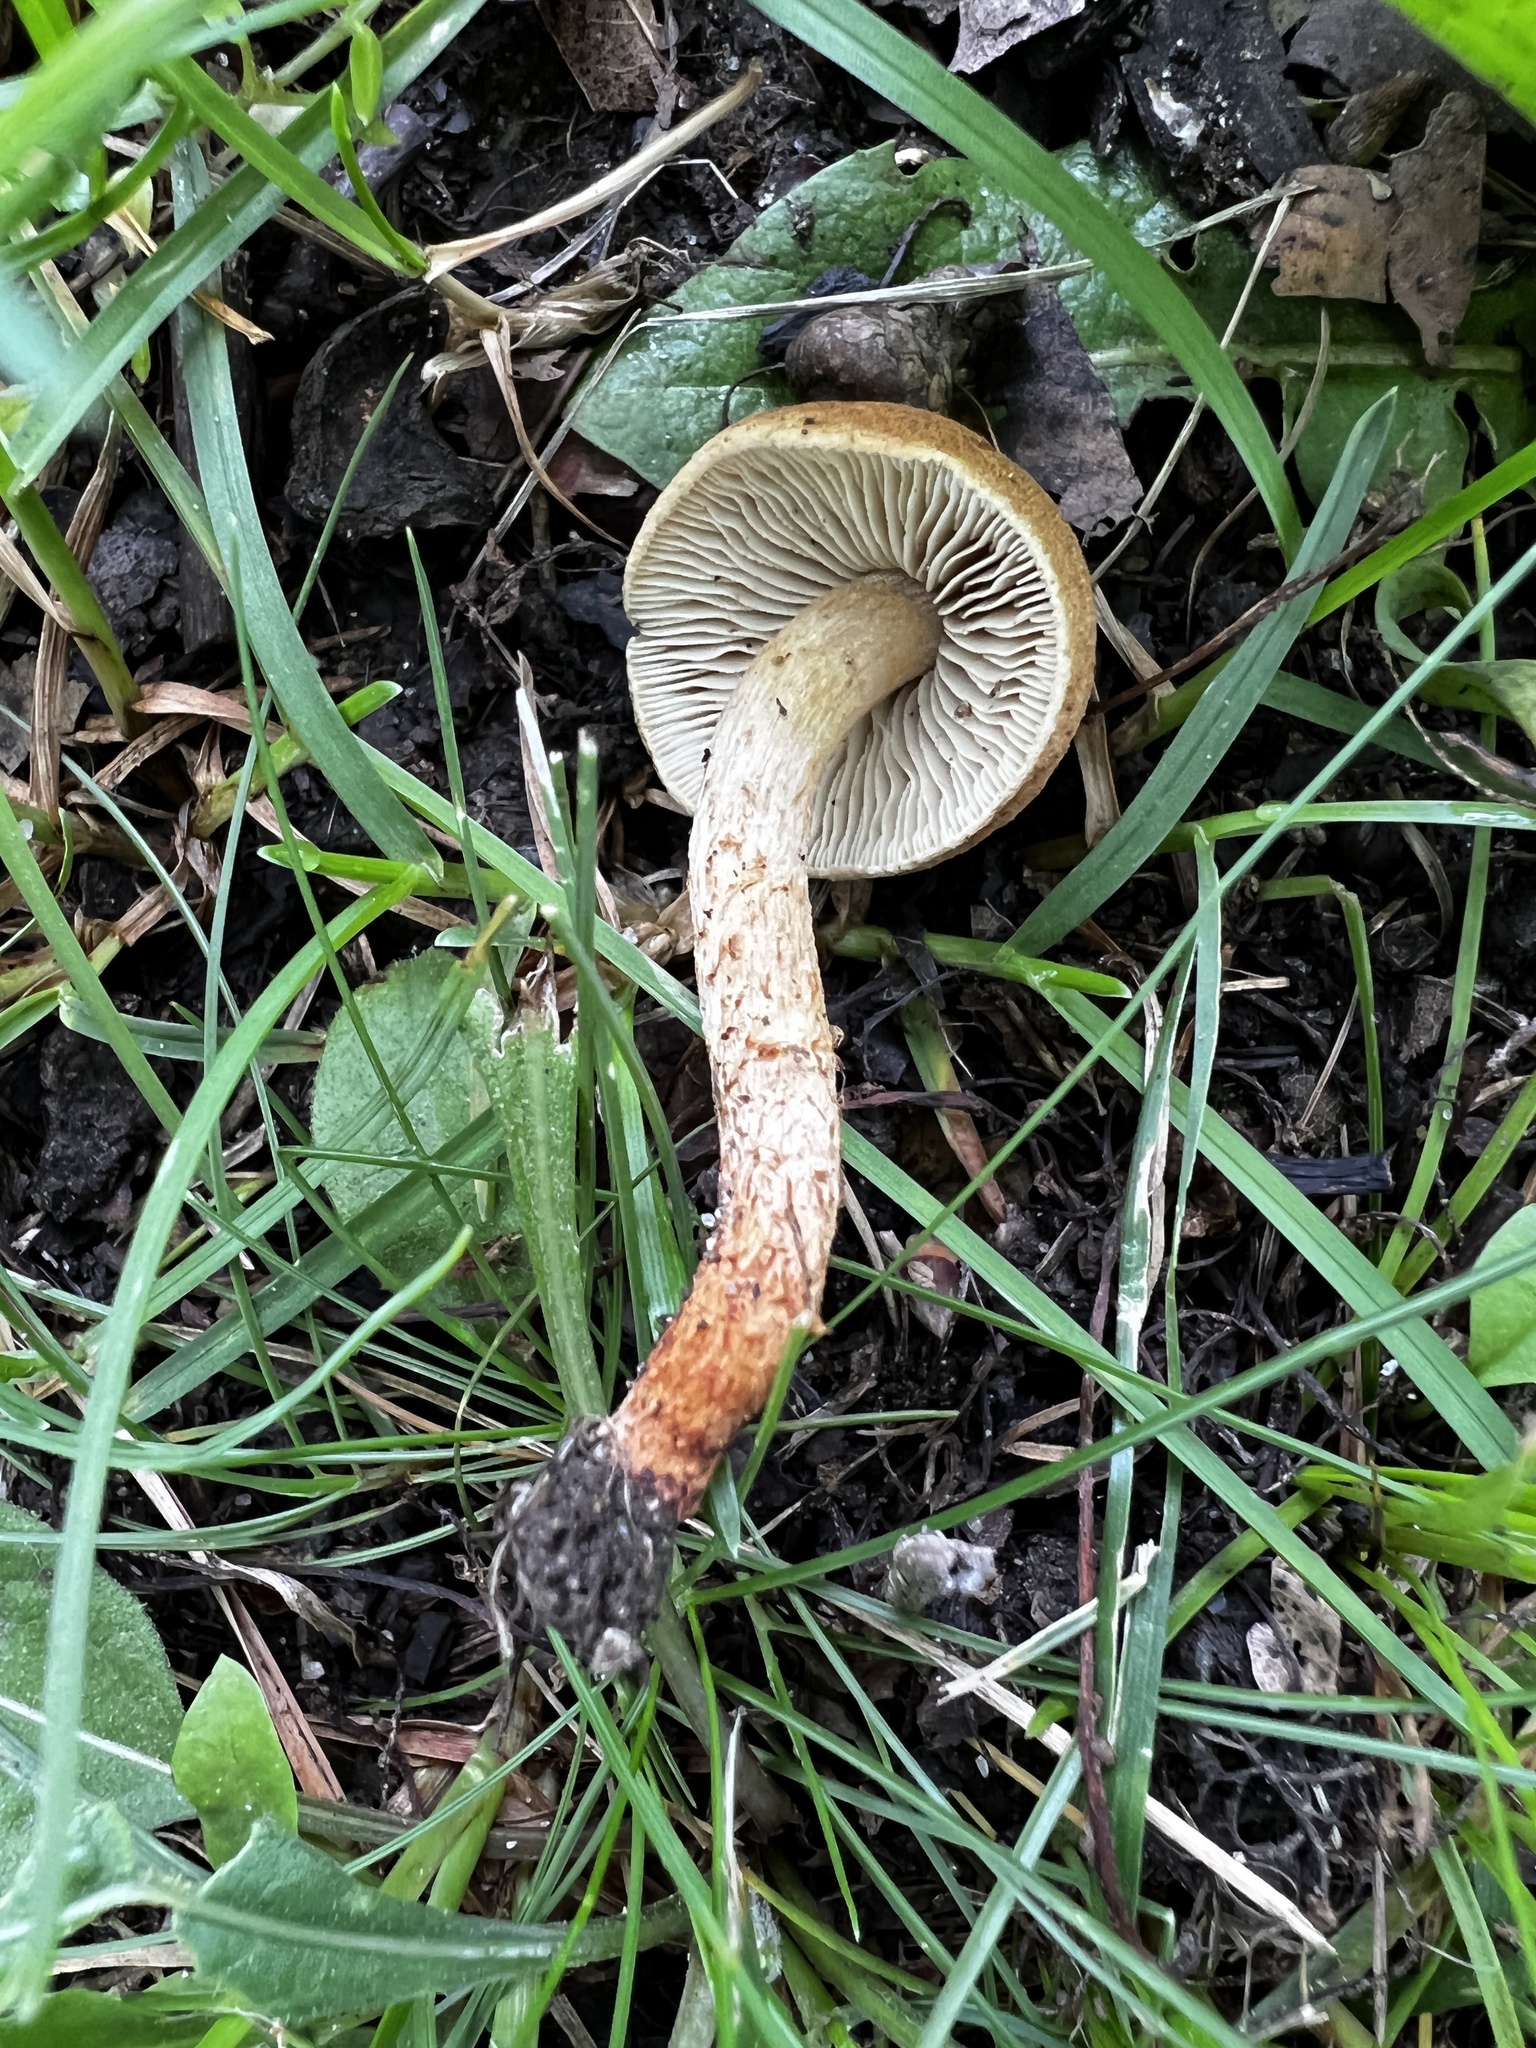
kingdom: Fungi
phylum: Basidiomycota
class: Agaricomycetes
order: Agaricales
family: Inocybaceae
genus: Mallocybe
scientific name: Mallocybe unicolor
